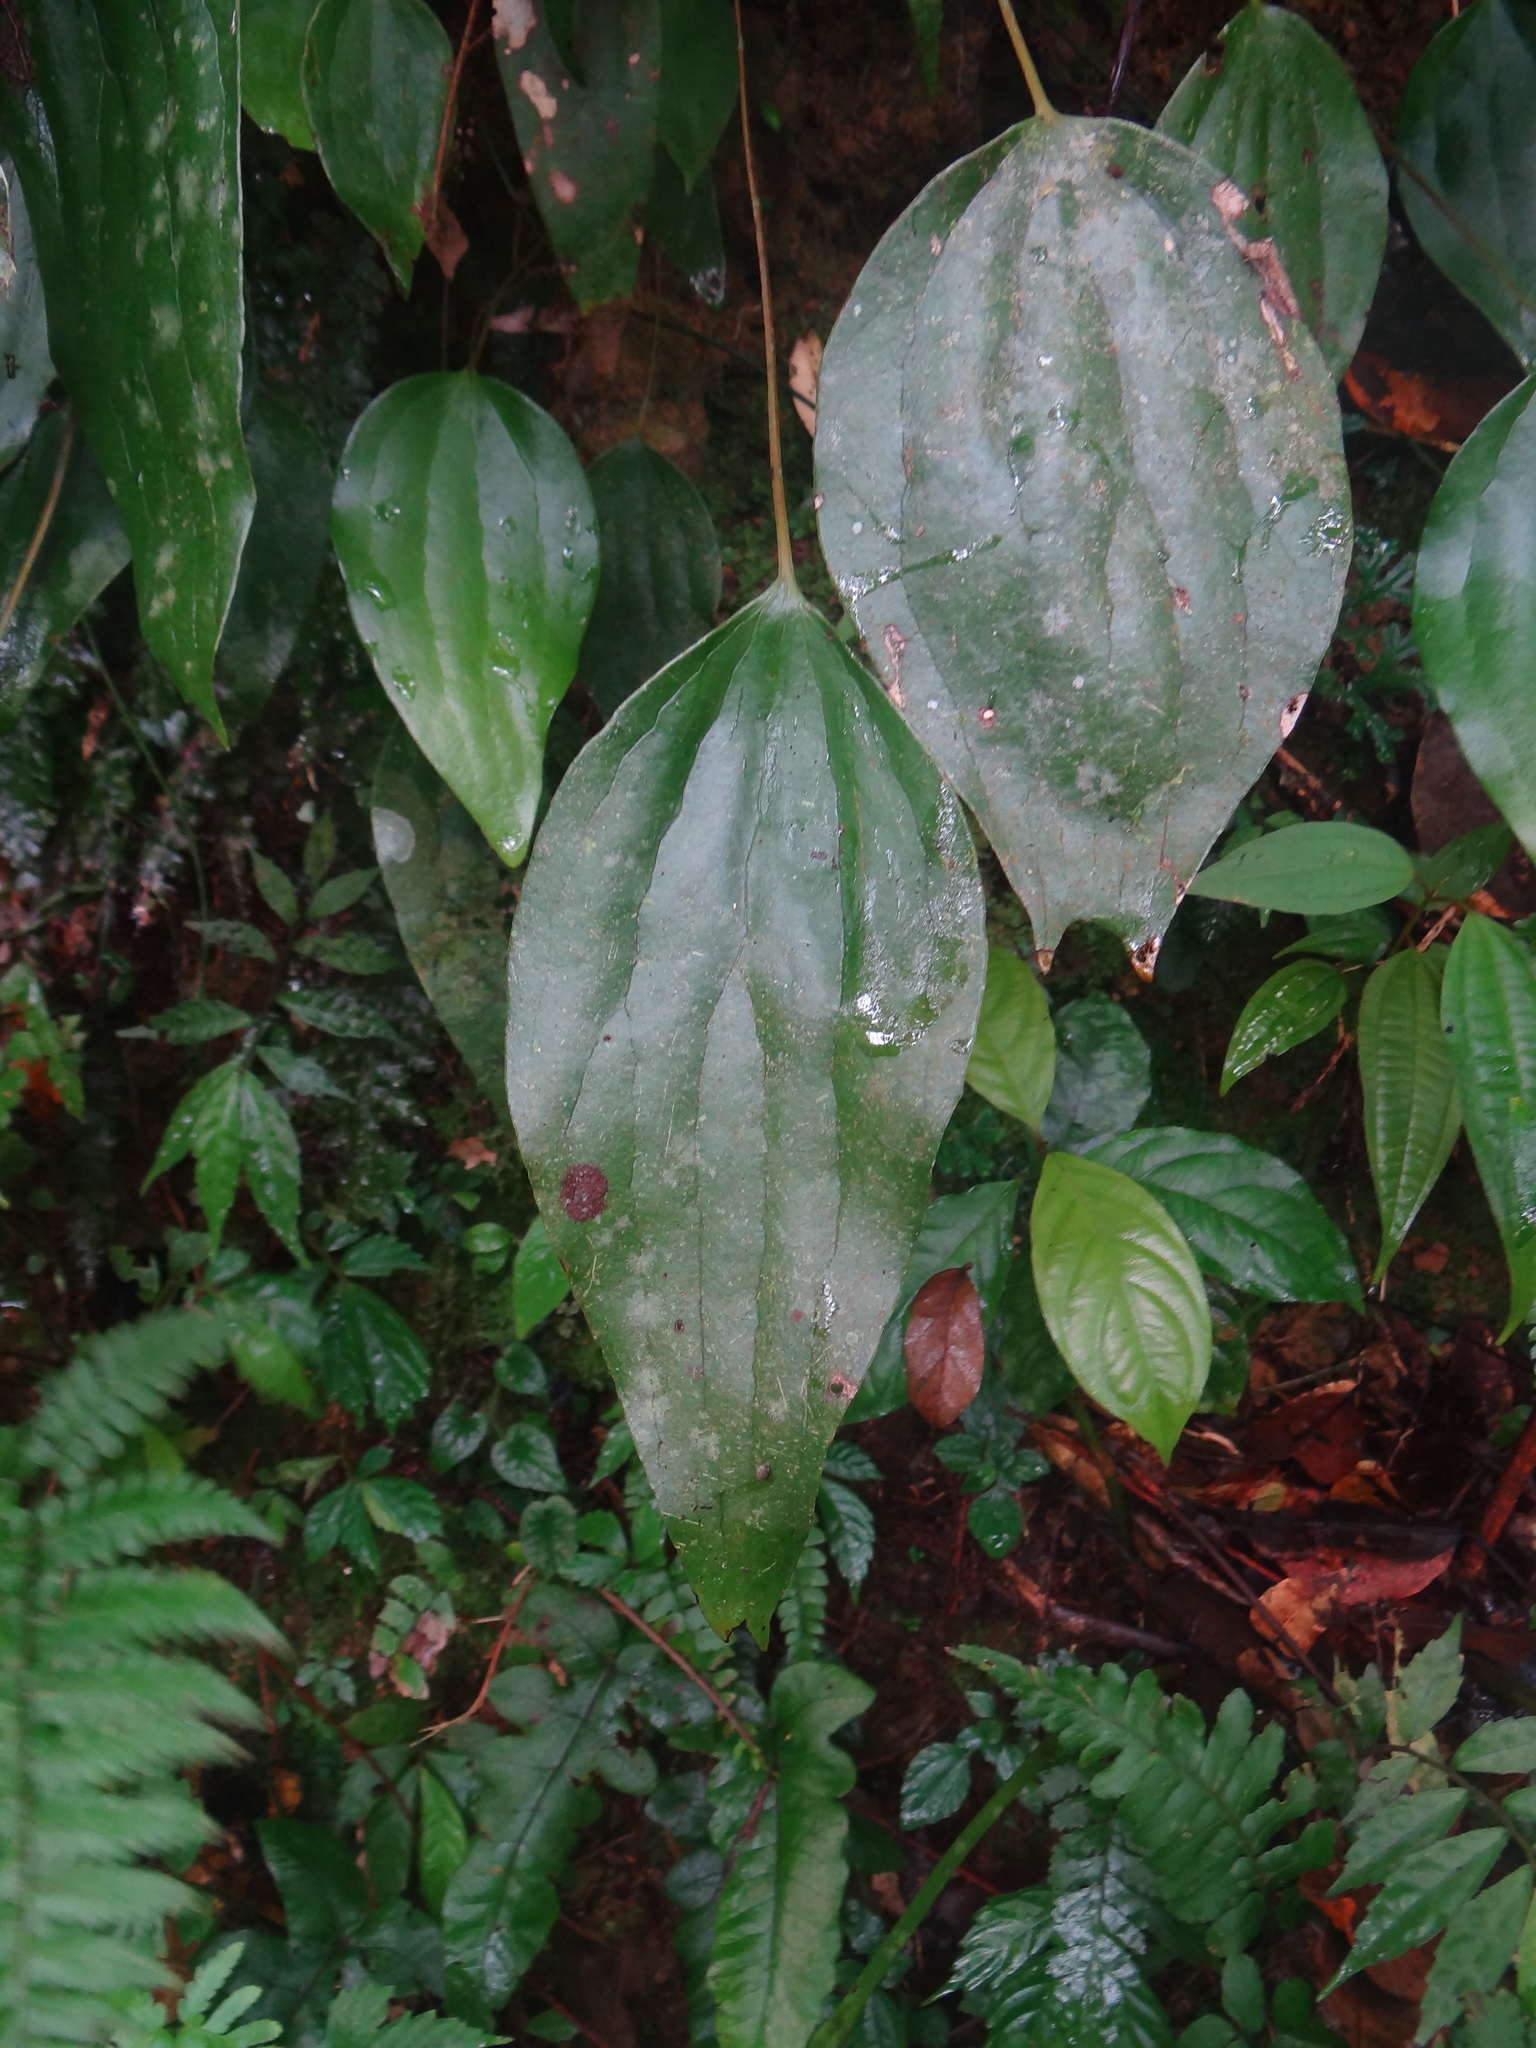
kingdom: Plantae
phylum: Tracheophyta
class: Polypodiopsida
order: Gleicheniales
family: Dipteridaceae
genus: Cheiropleuria
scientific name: Cheiropleuria integrifolia
